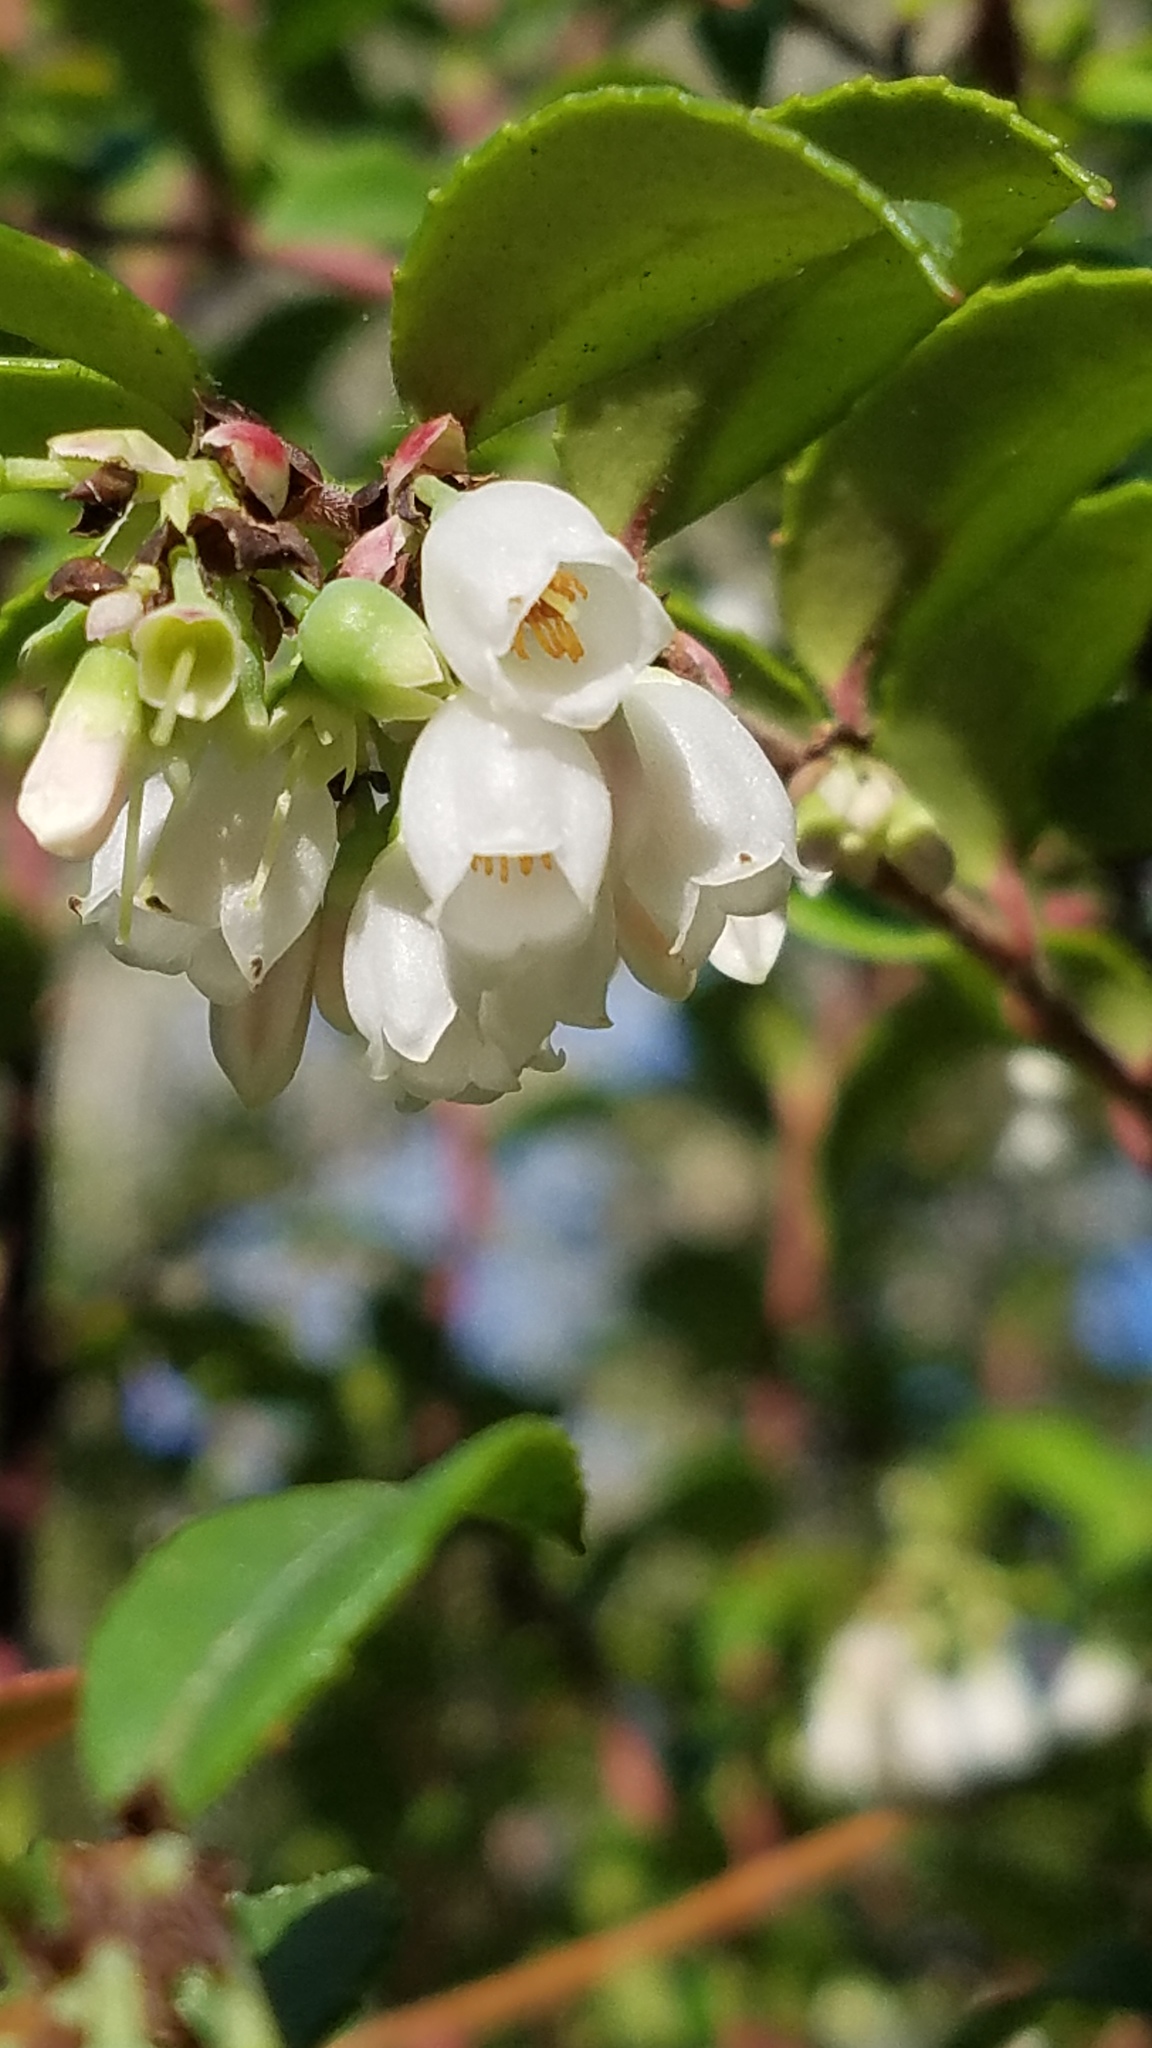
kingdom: Plantae
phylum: Tracheophyta
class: Magnoliopsida
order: Ericales
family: Ericaceae
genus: Vaccinium
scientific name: Vaccinium ovatum
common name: California-huckleberry
